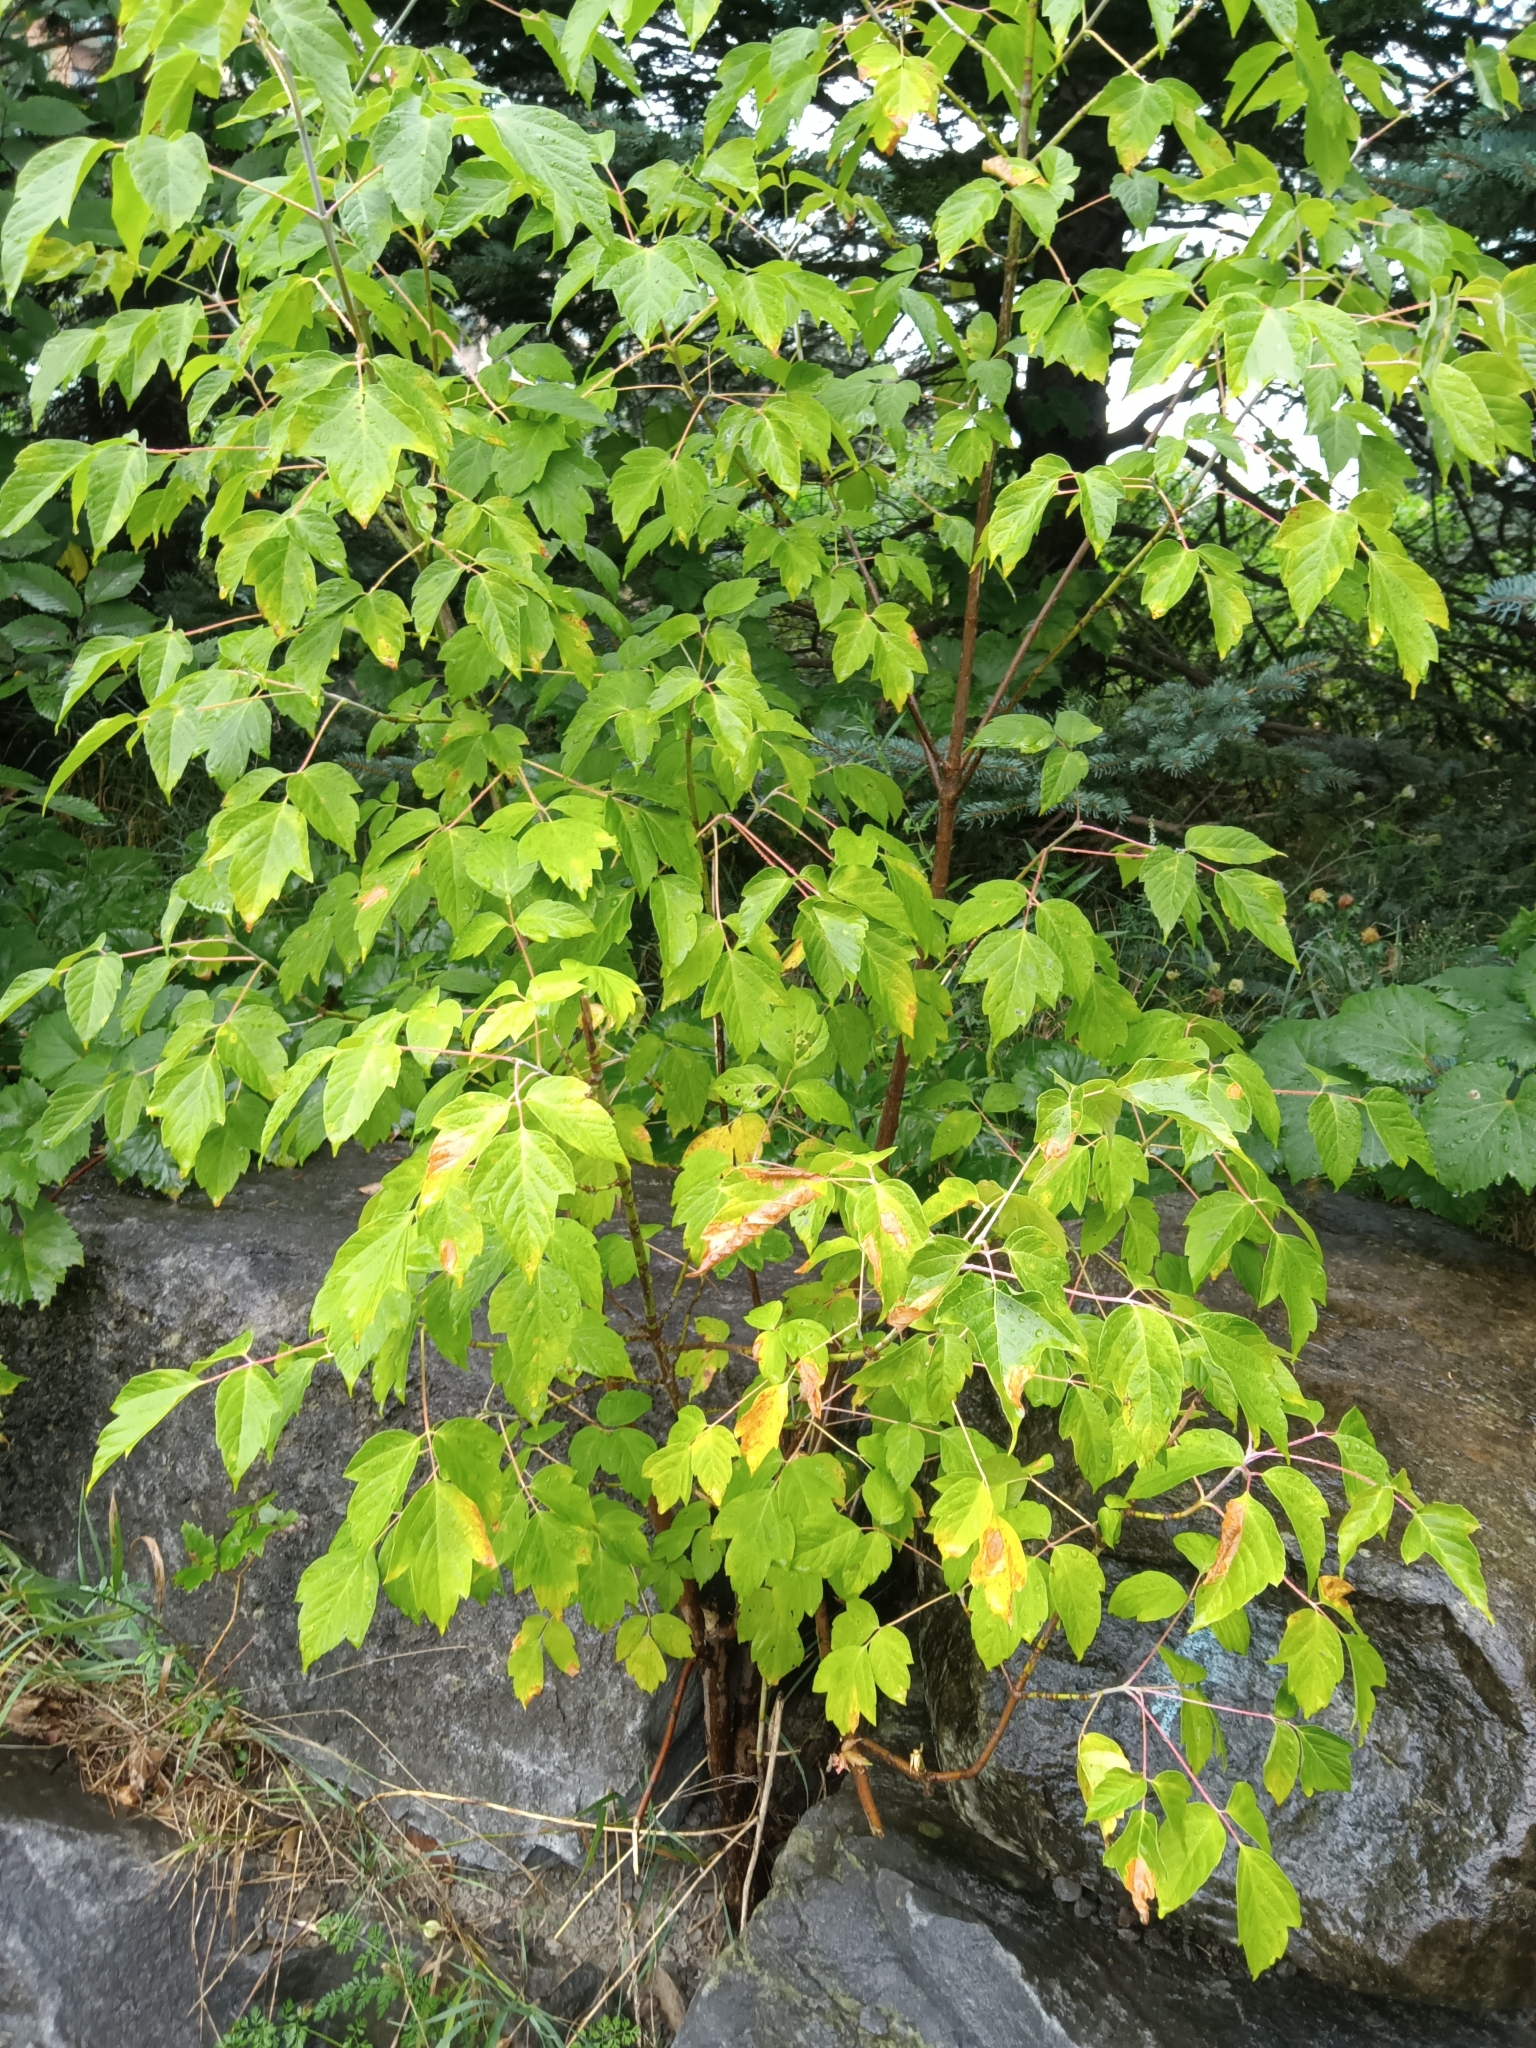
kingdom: Plantae
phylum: Tracheophyta
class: Magnoliopsida
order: Sapindales
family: Sapindaceae
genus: Acer
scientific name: Acer negundo
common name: Ashleaf maple
